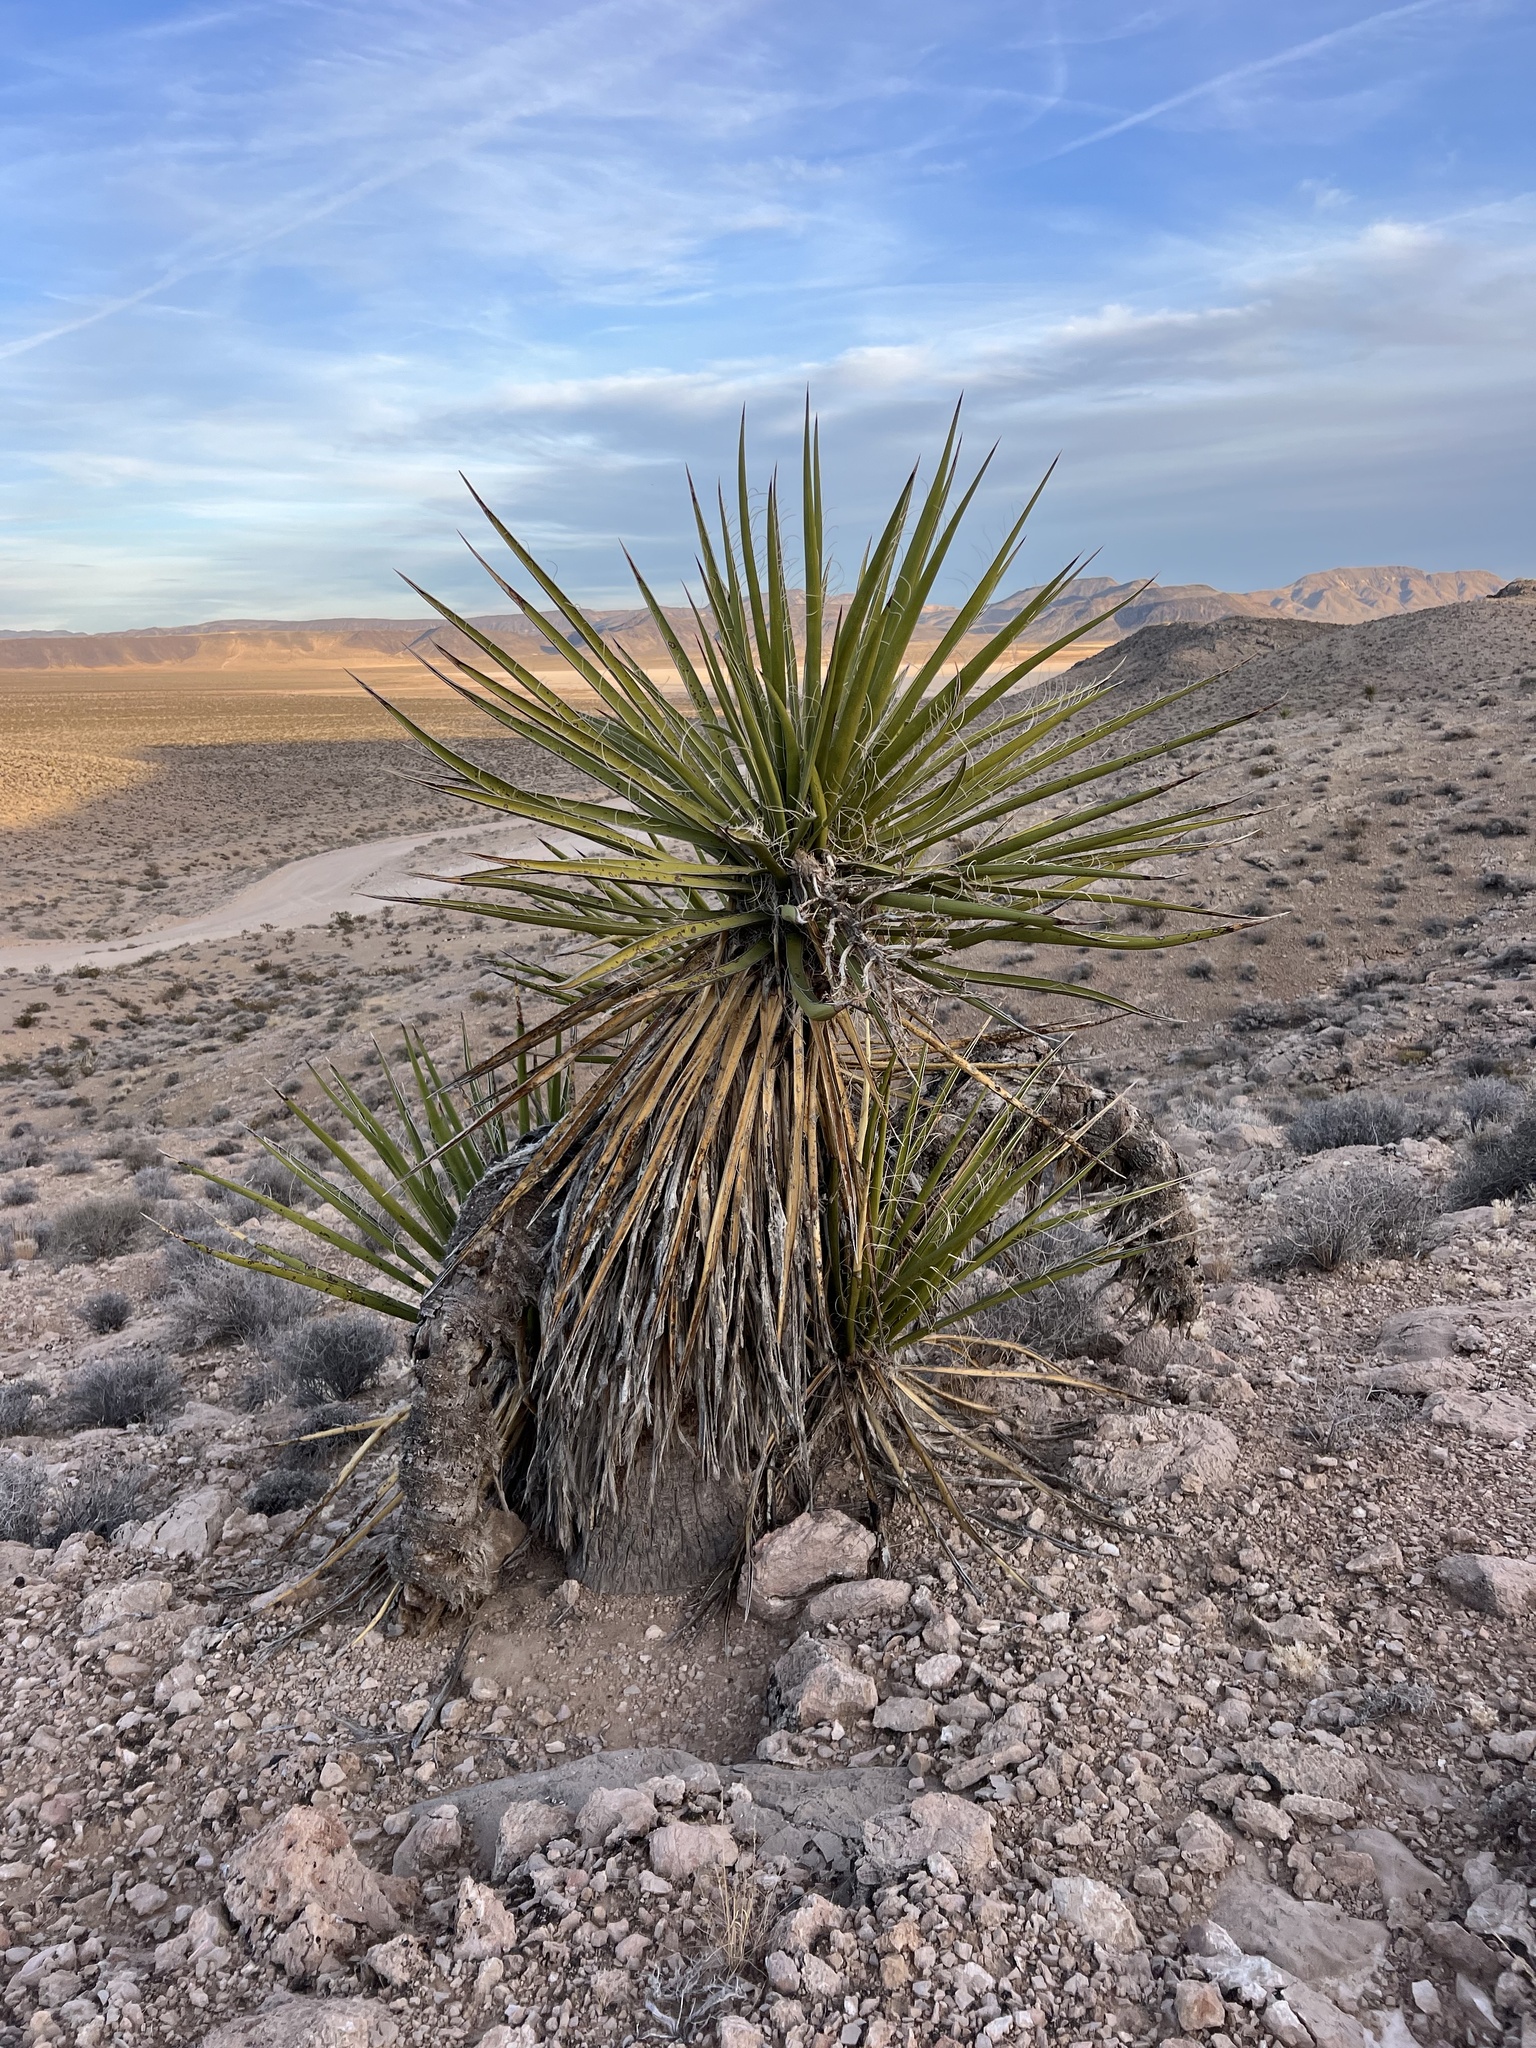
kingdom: Plantae
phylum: Tracheophyta
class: Liliopsida
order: Asparagales
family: Asparagaceae
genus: Yucca
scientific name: Yucca schidigera
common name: Mojave yucca
